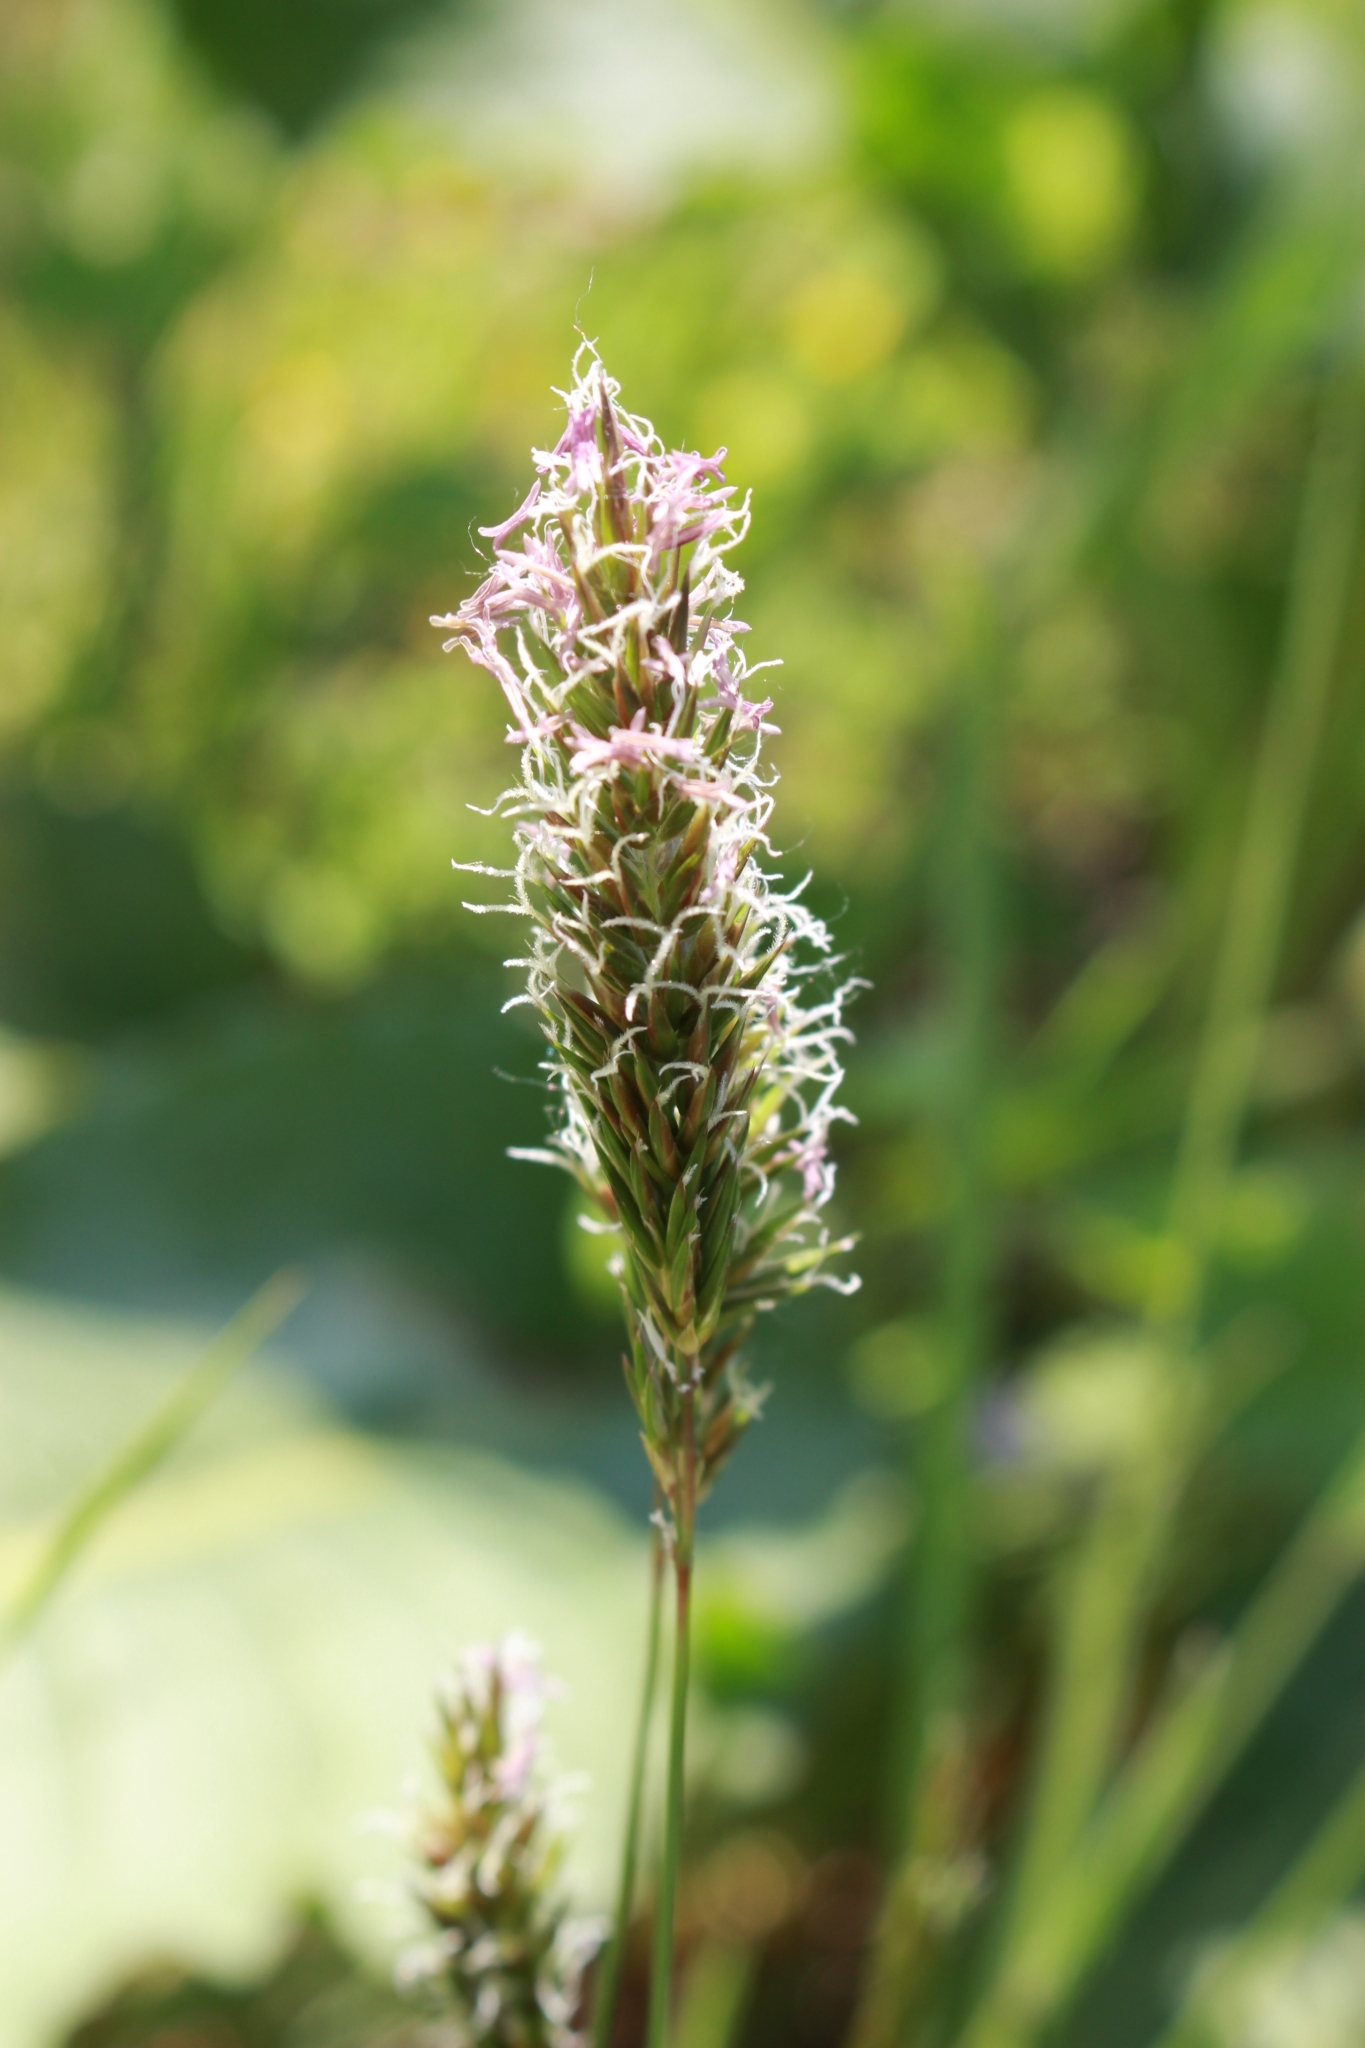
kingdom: Plantae
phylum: Tracheophyta
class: Liliopsida
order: Poales
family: Poaceae
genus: Anthoxanthum
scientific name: Anthoxanthum odoratum
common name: Sweet vernalgrass
